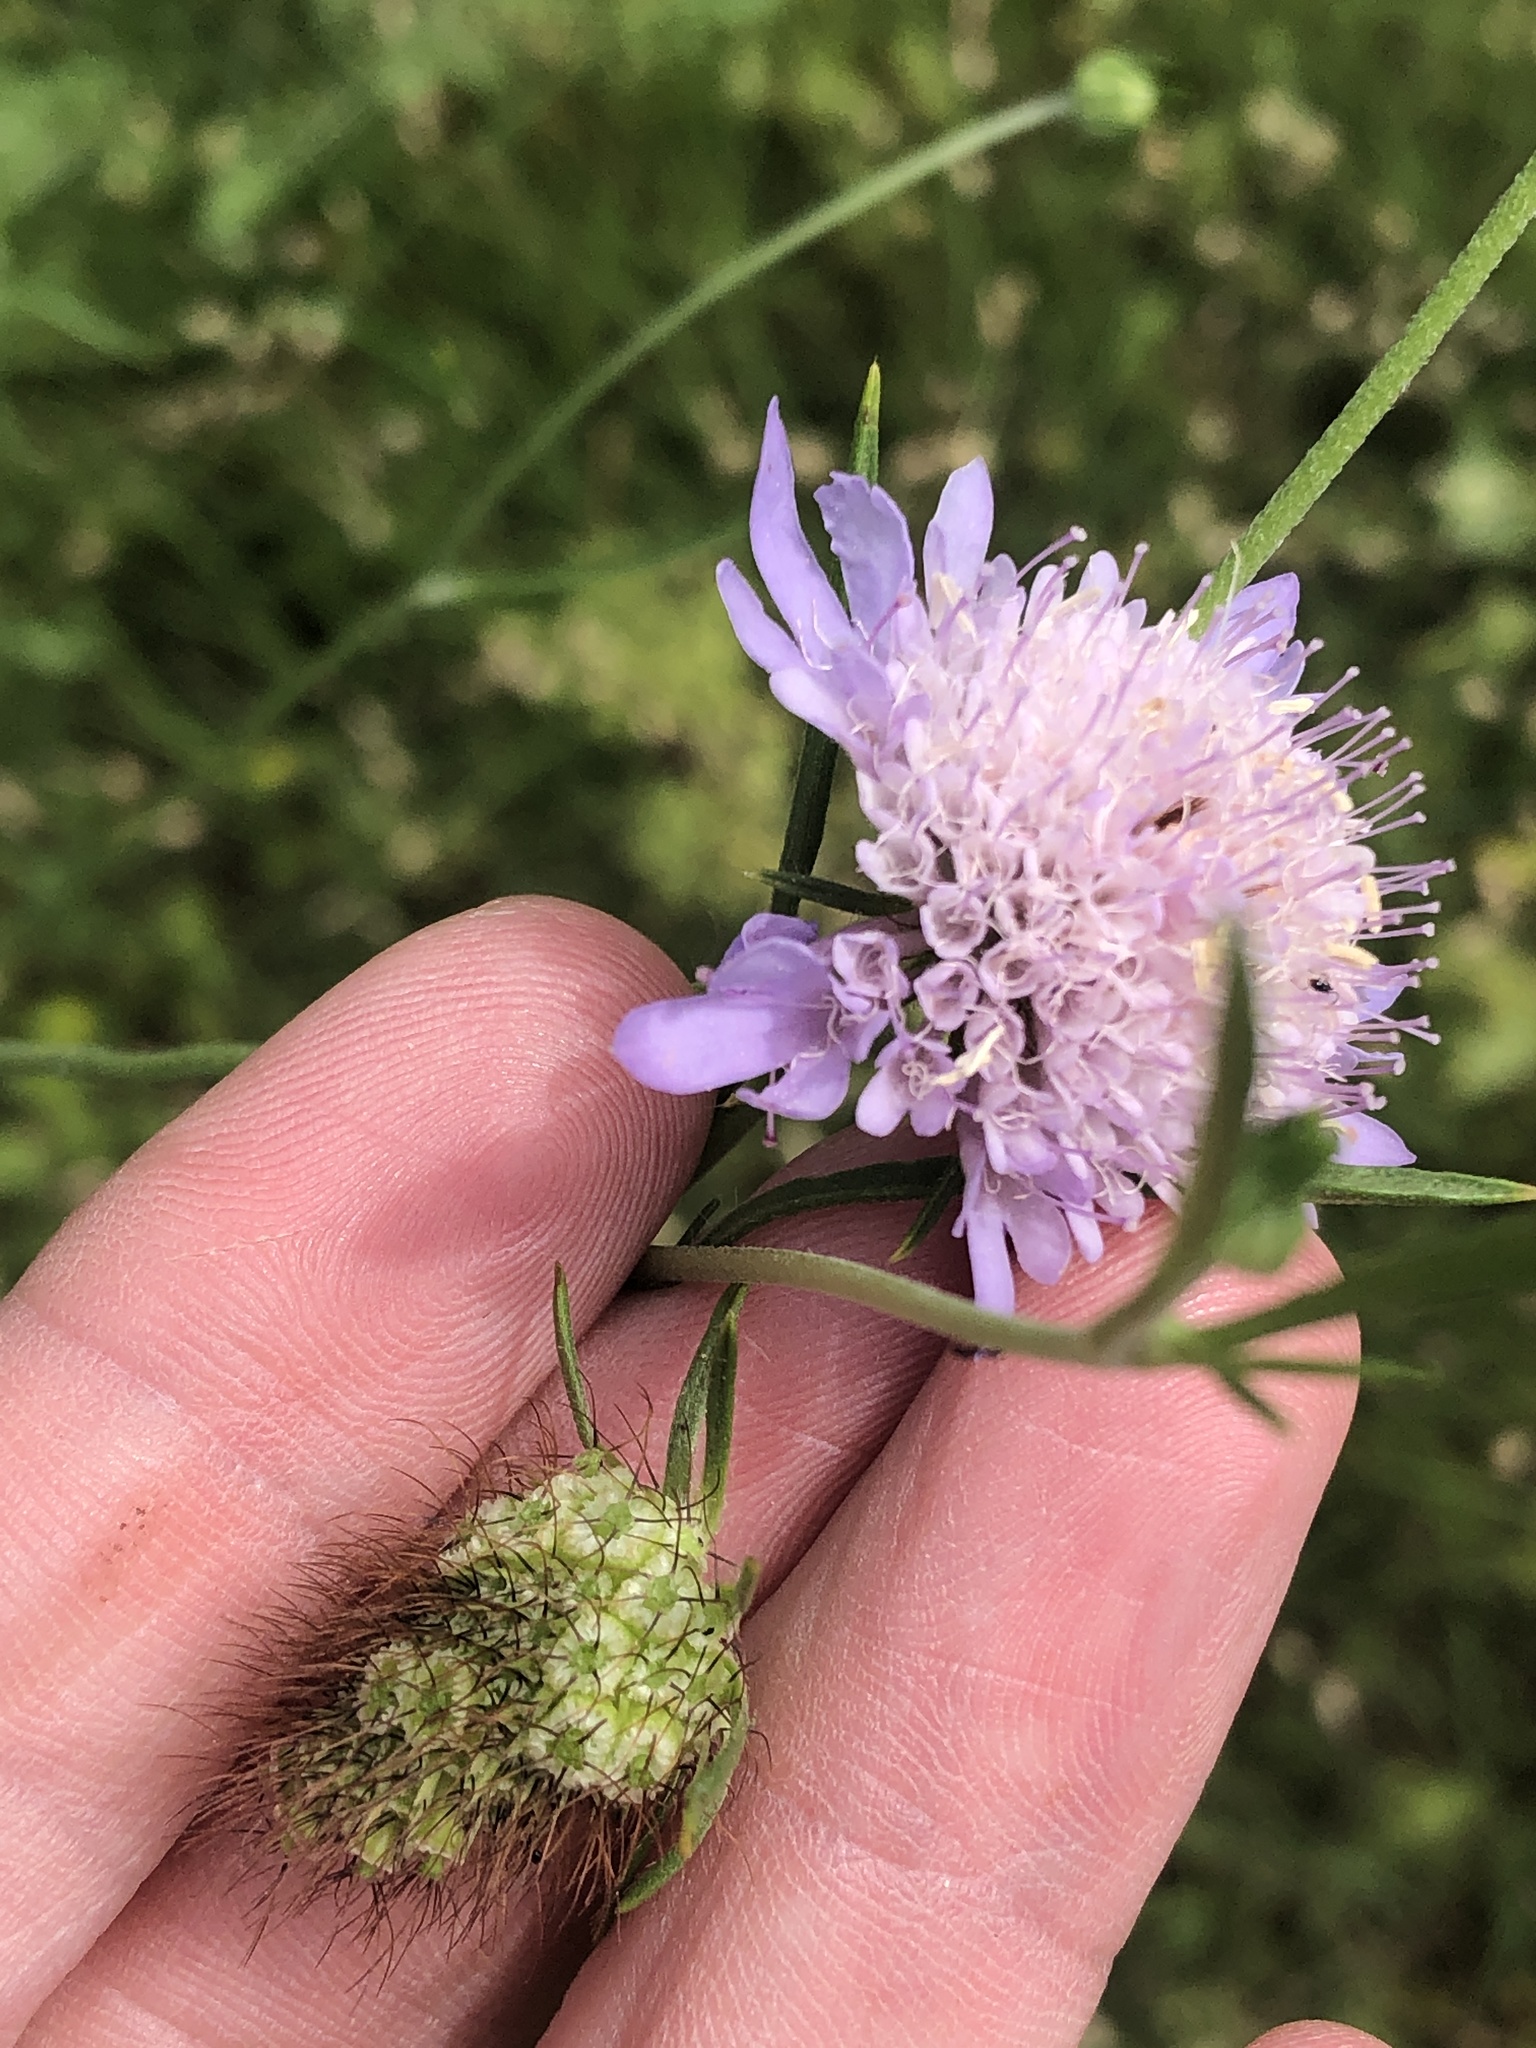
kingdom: Plantae
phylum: Tracheophyta
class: Magnoliopsida
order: Dipsacales
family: Caprifoliaceae
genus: Sixalix
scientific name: Sixalix atropurpurea
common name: Sweet scabious
